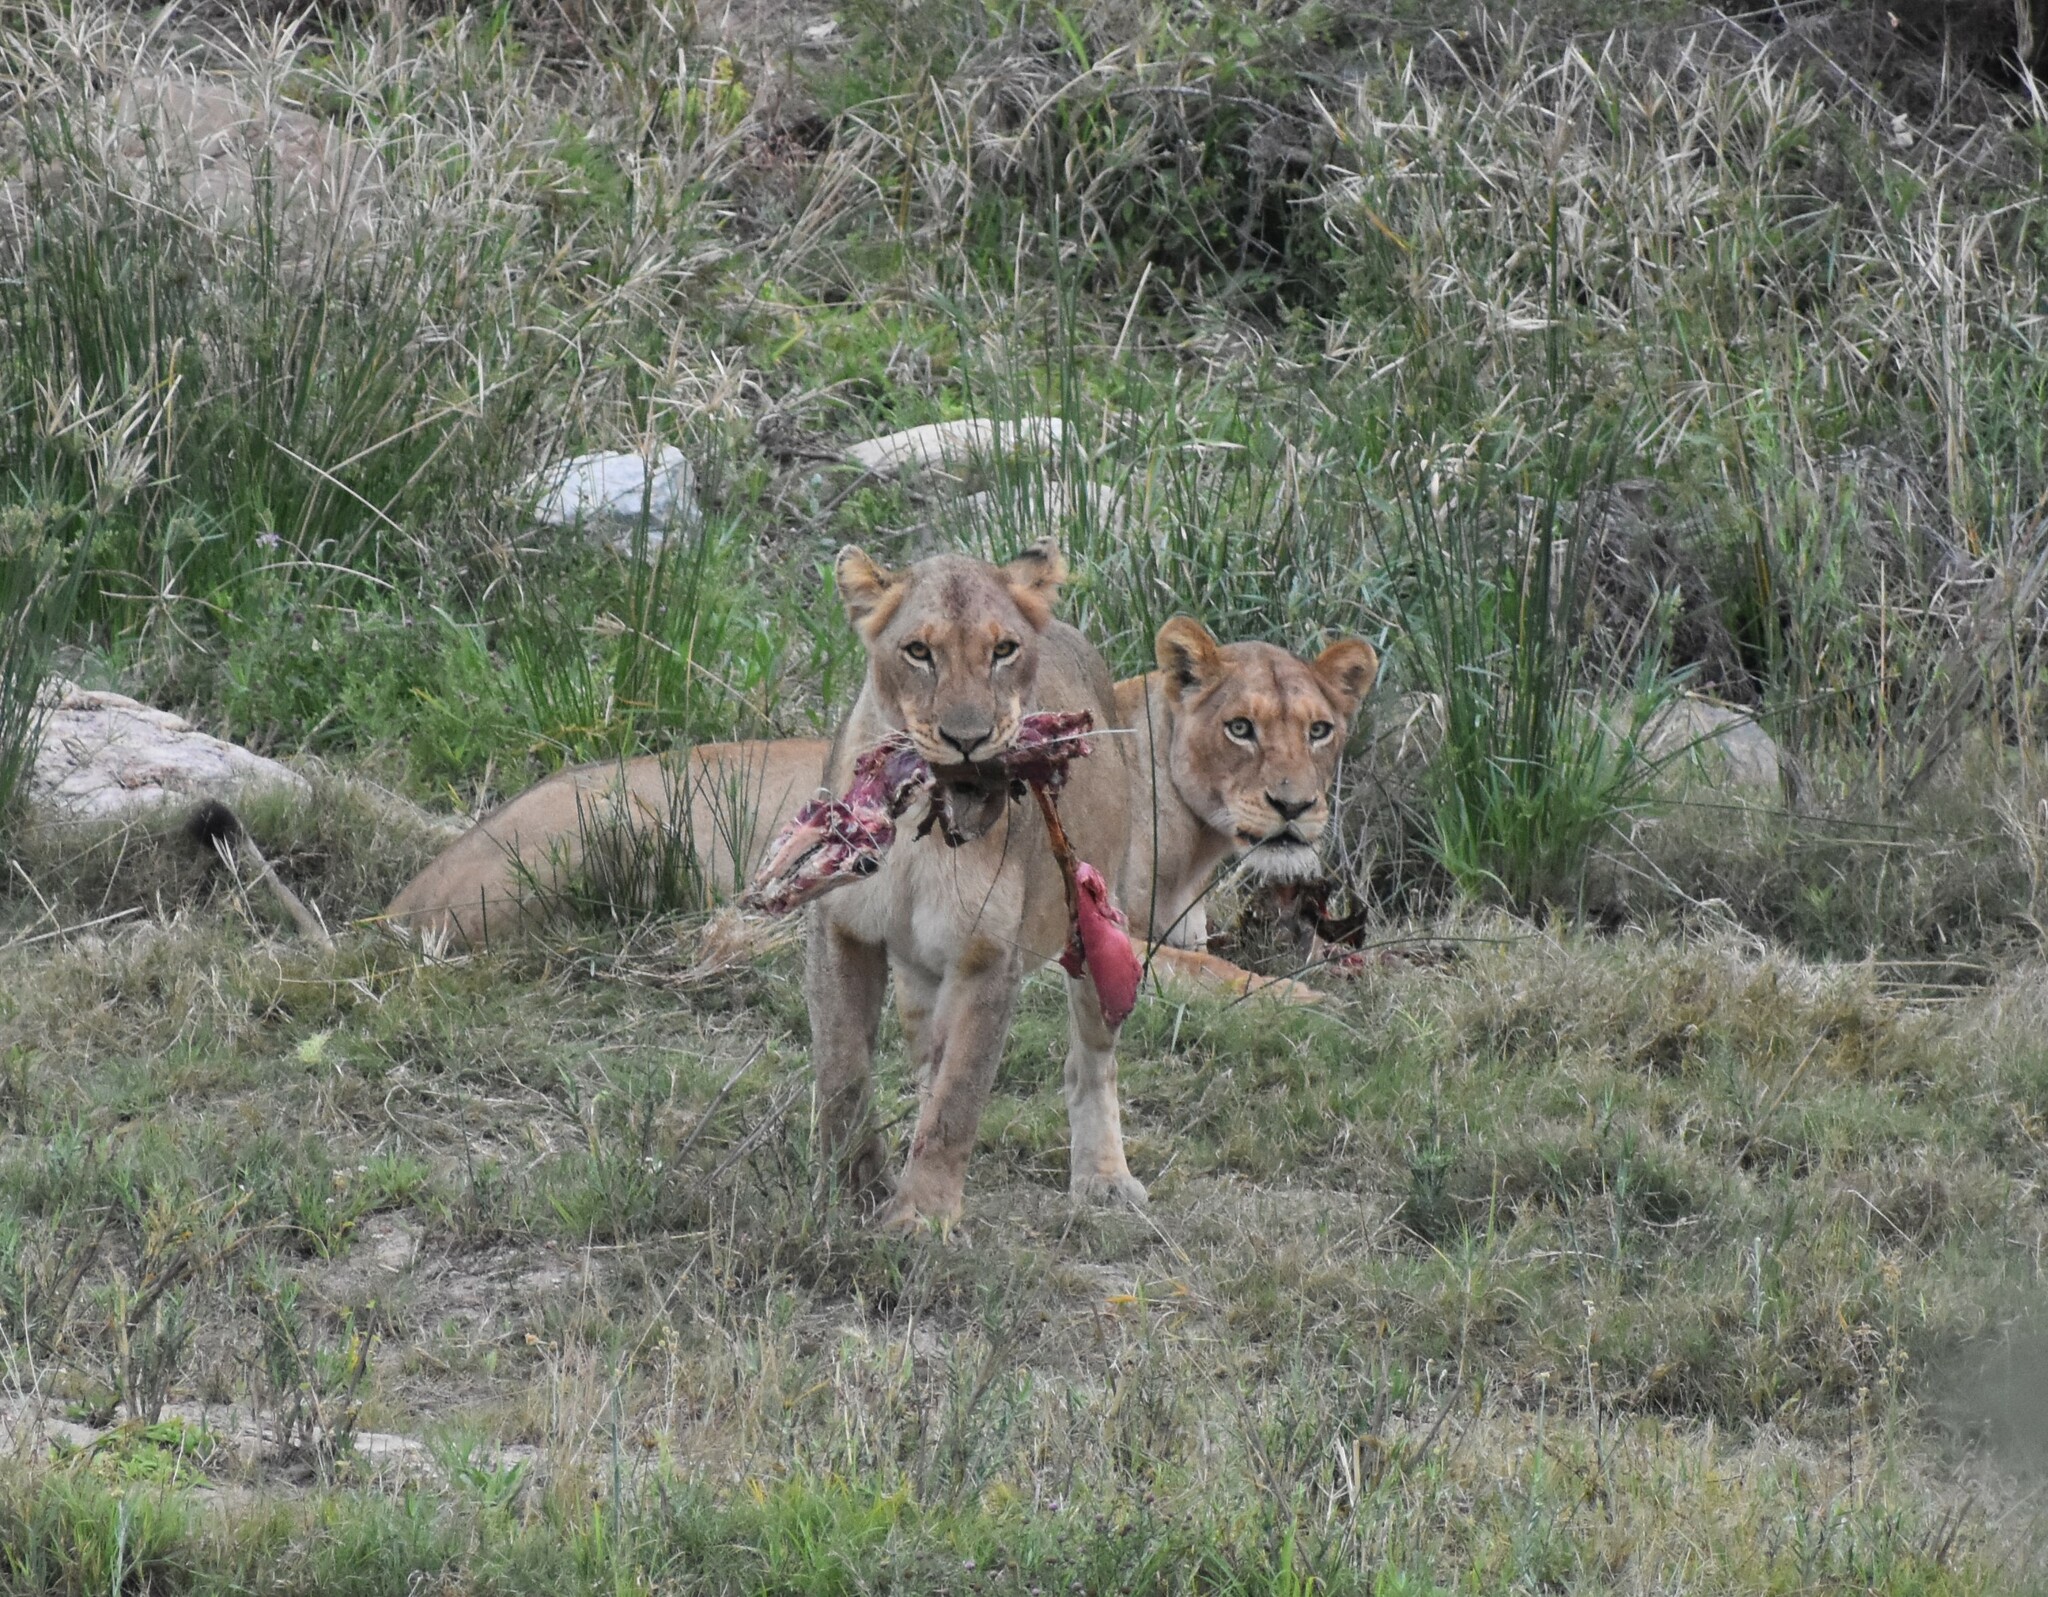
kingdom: Animalia
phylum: Chordata
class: Mammalia
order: Carnivora
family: Felidae
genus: Panthera
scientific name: Panthera leo
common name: Lion
